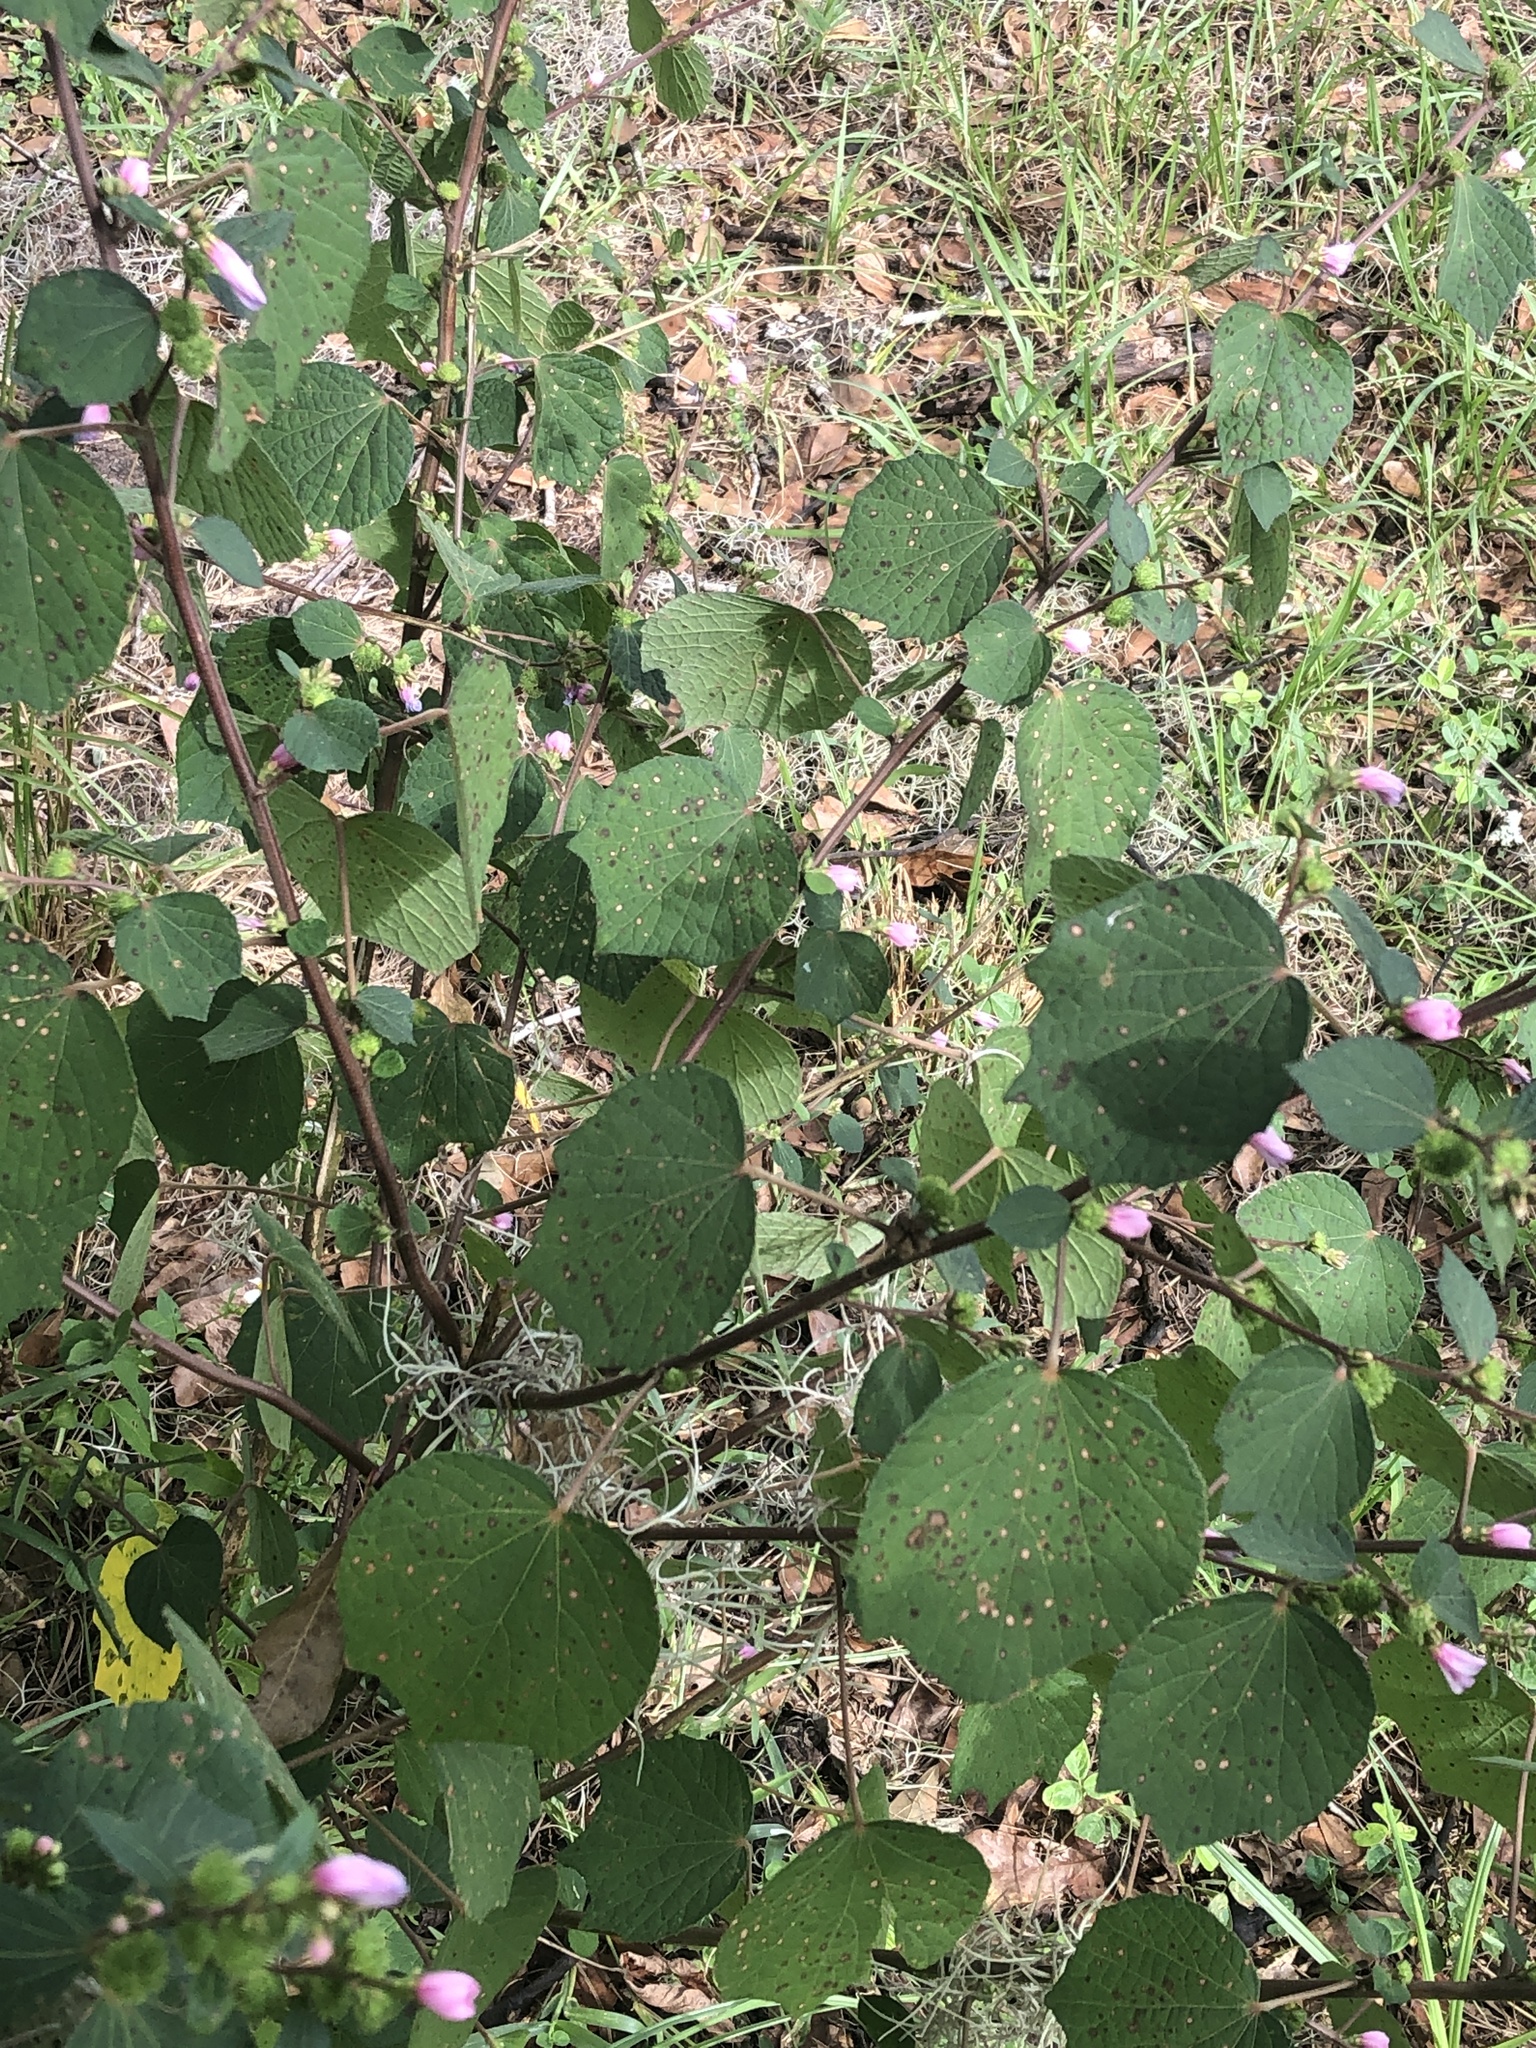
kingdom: Plantae
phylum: Tracheophyta
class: Magnoliopsida
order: Malvales
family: Malvaceae
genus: Urena
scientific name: Urena lobata
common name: Caesarweed
